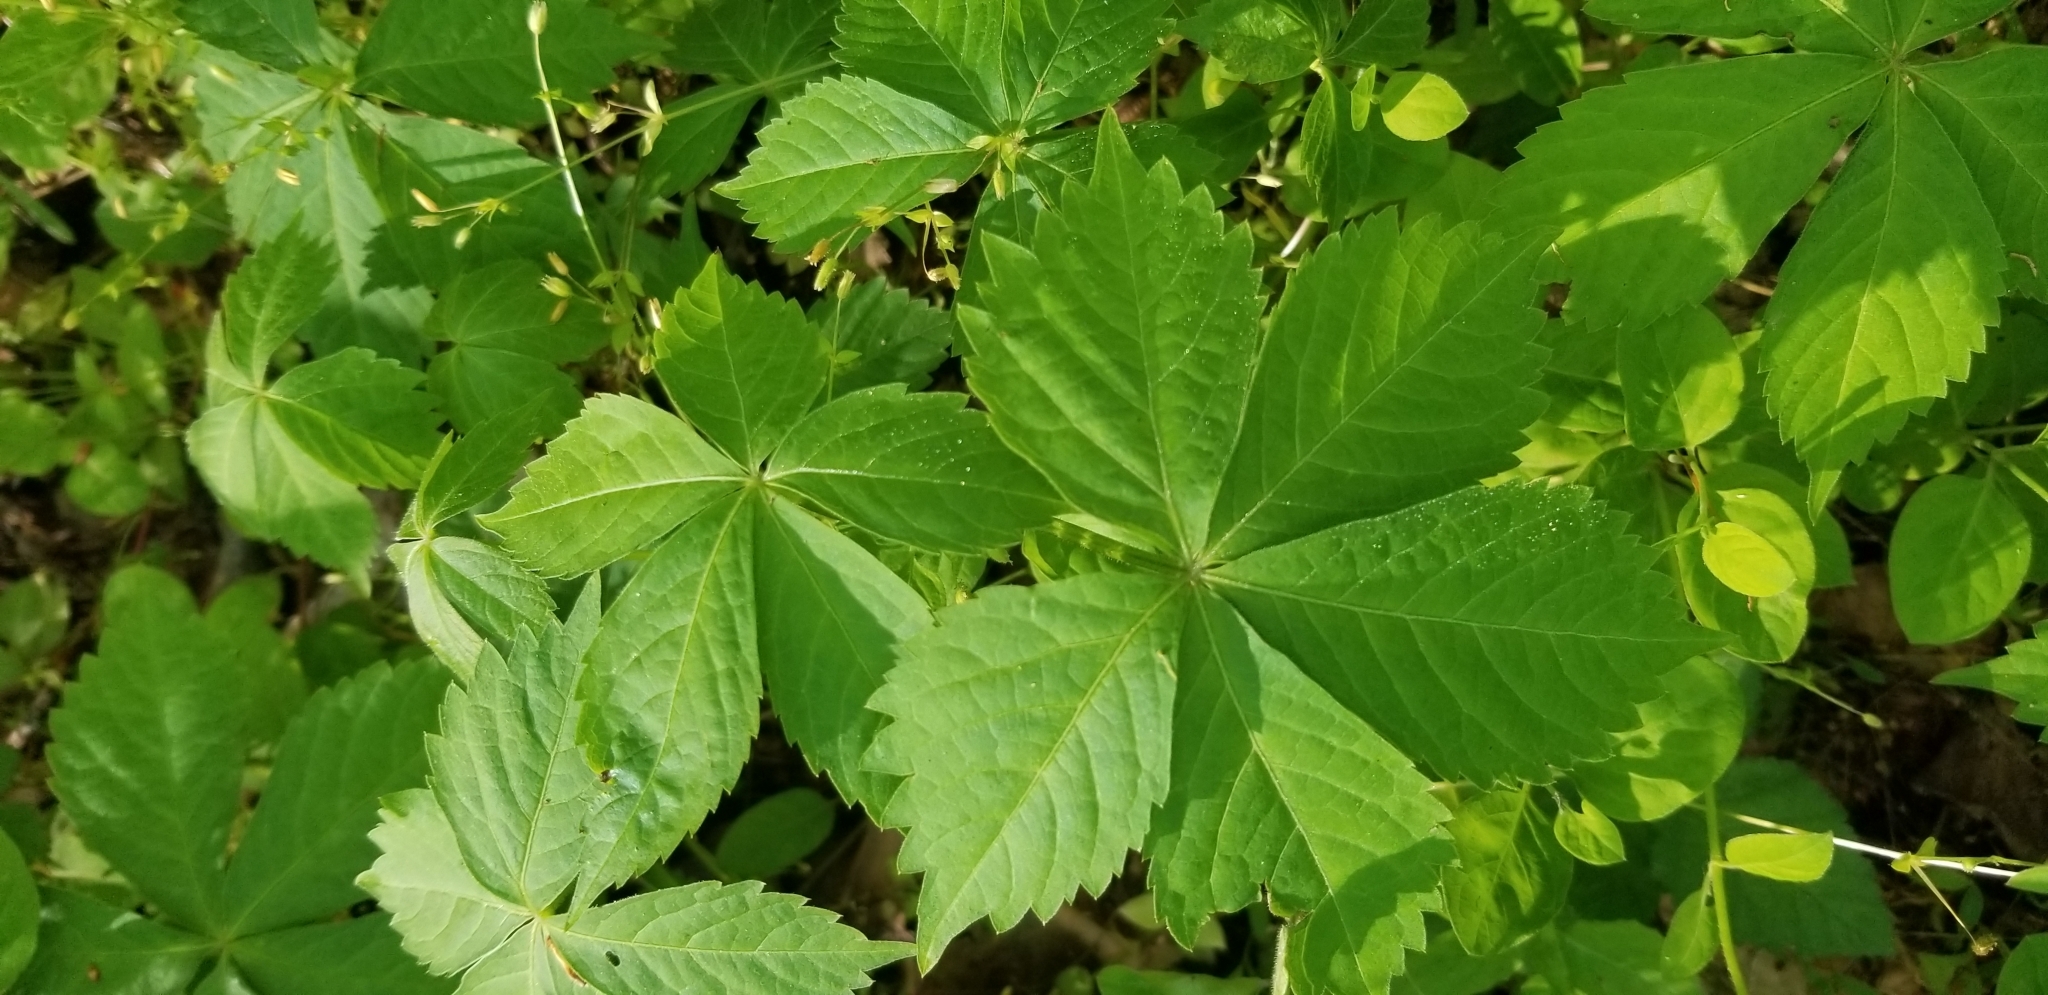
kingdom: Plantae
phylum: Tracheophyta
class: Magnoliopsida
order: Vitales
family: Vitaceae
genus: Parthenocissus
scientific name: Parthenocissus quinquefolia
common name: Virginia-creeper
